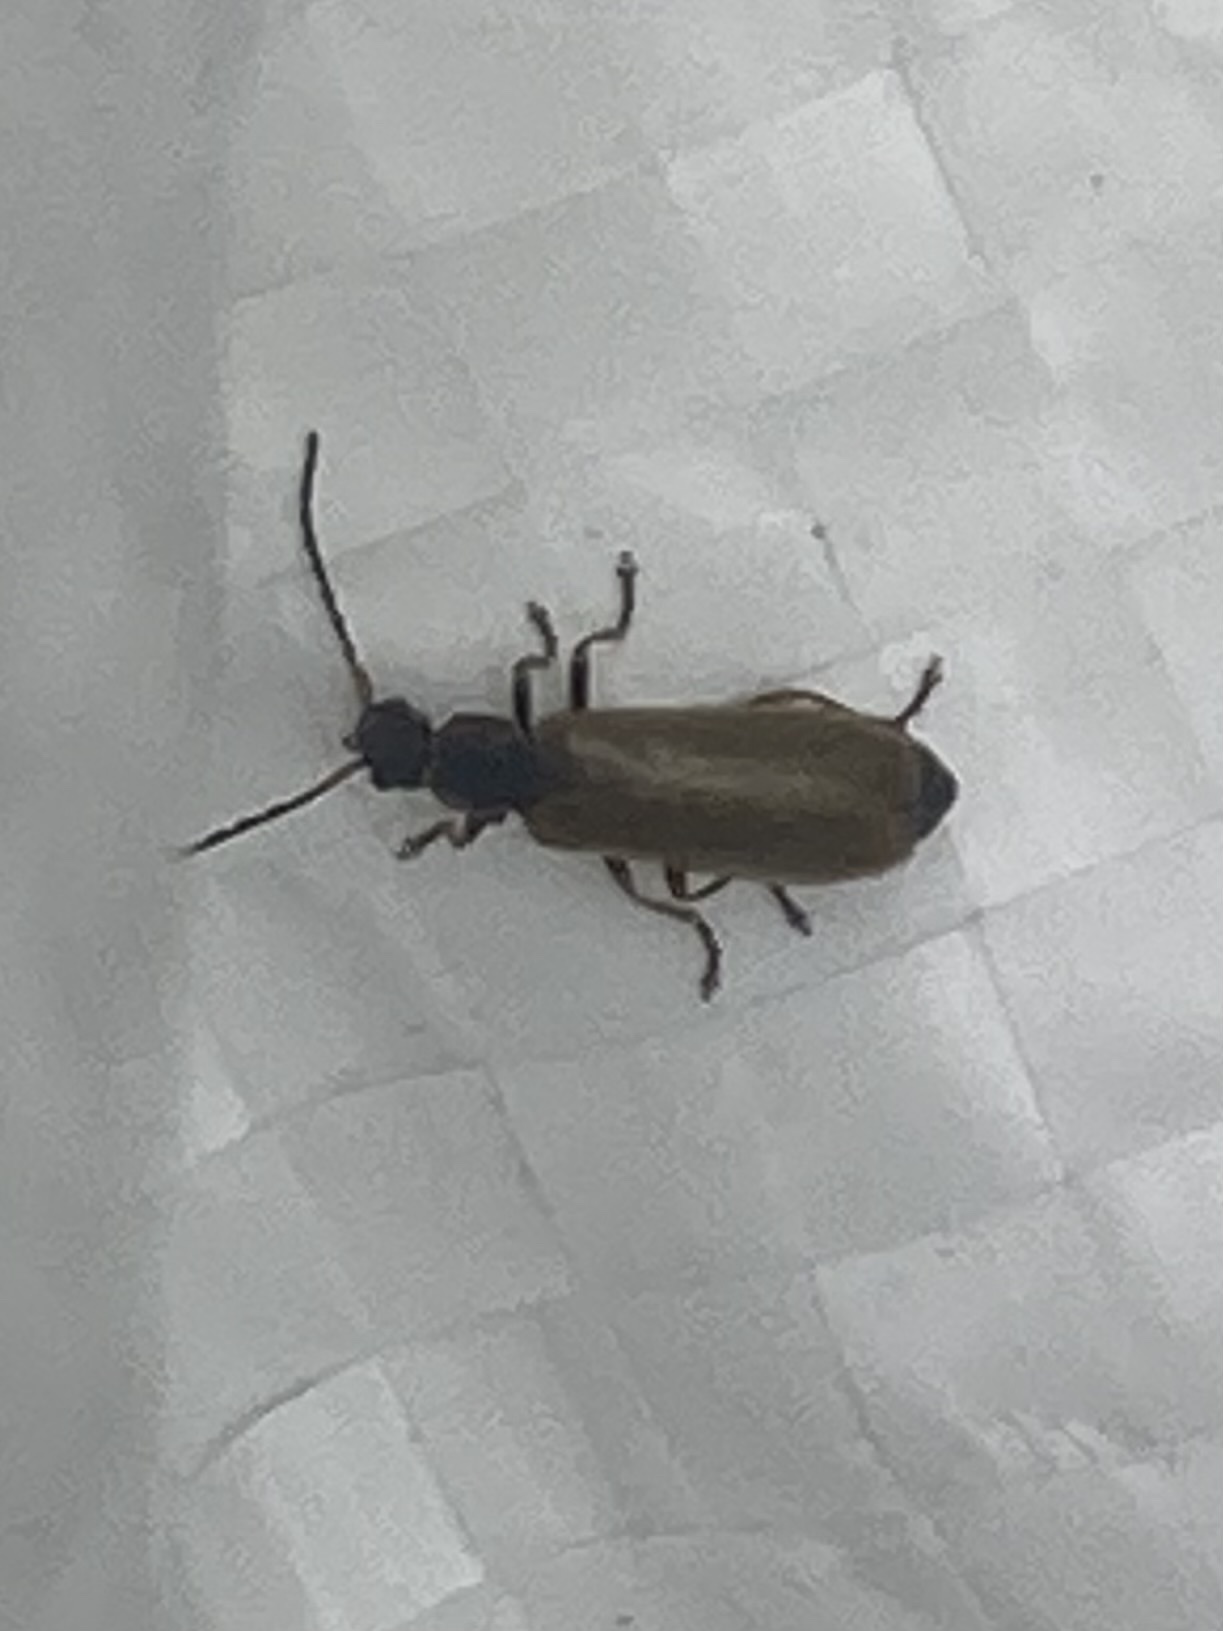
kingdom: Animalia
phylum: Arthropoda
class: Insecta
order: Coleoptera
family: Cantharidae
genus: Rhagonycha
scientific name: Rhagonycha nigriventris
